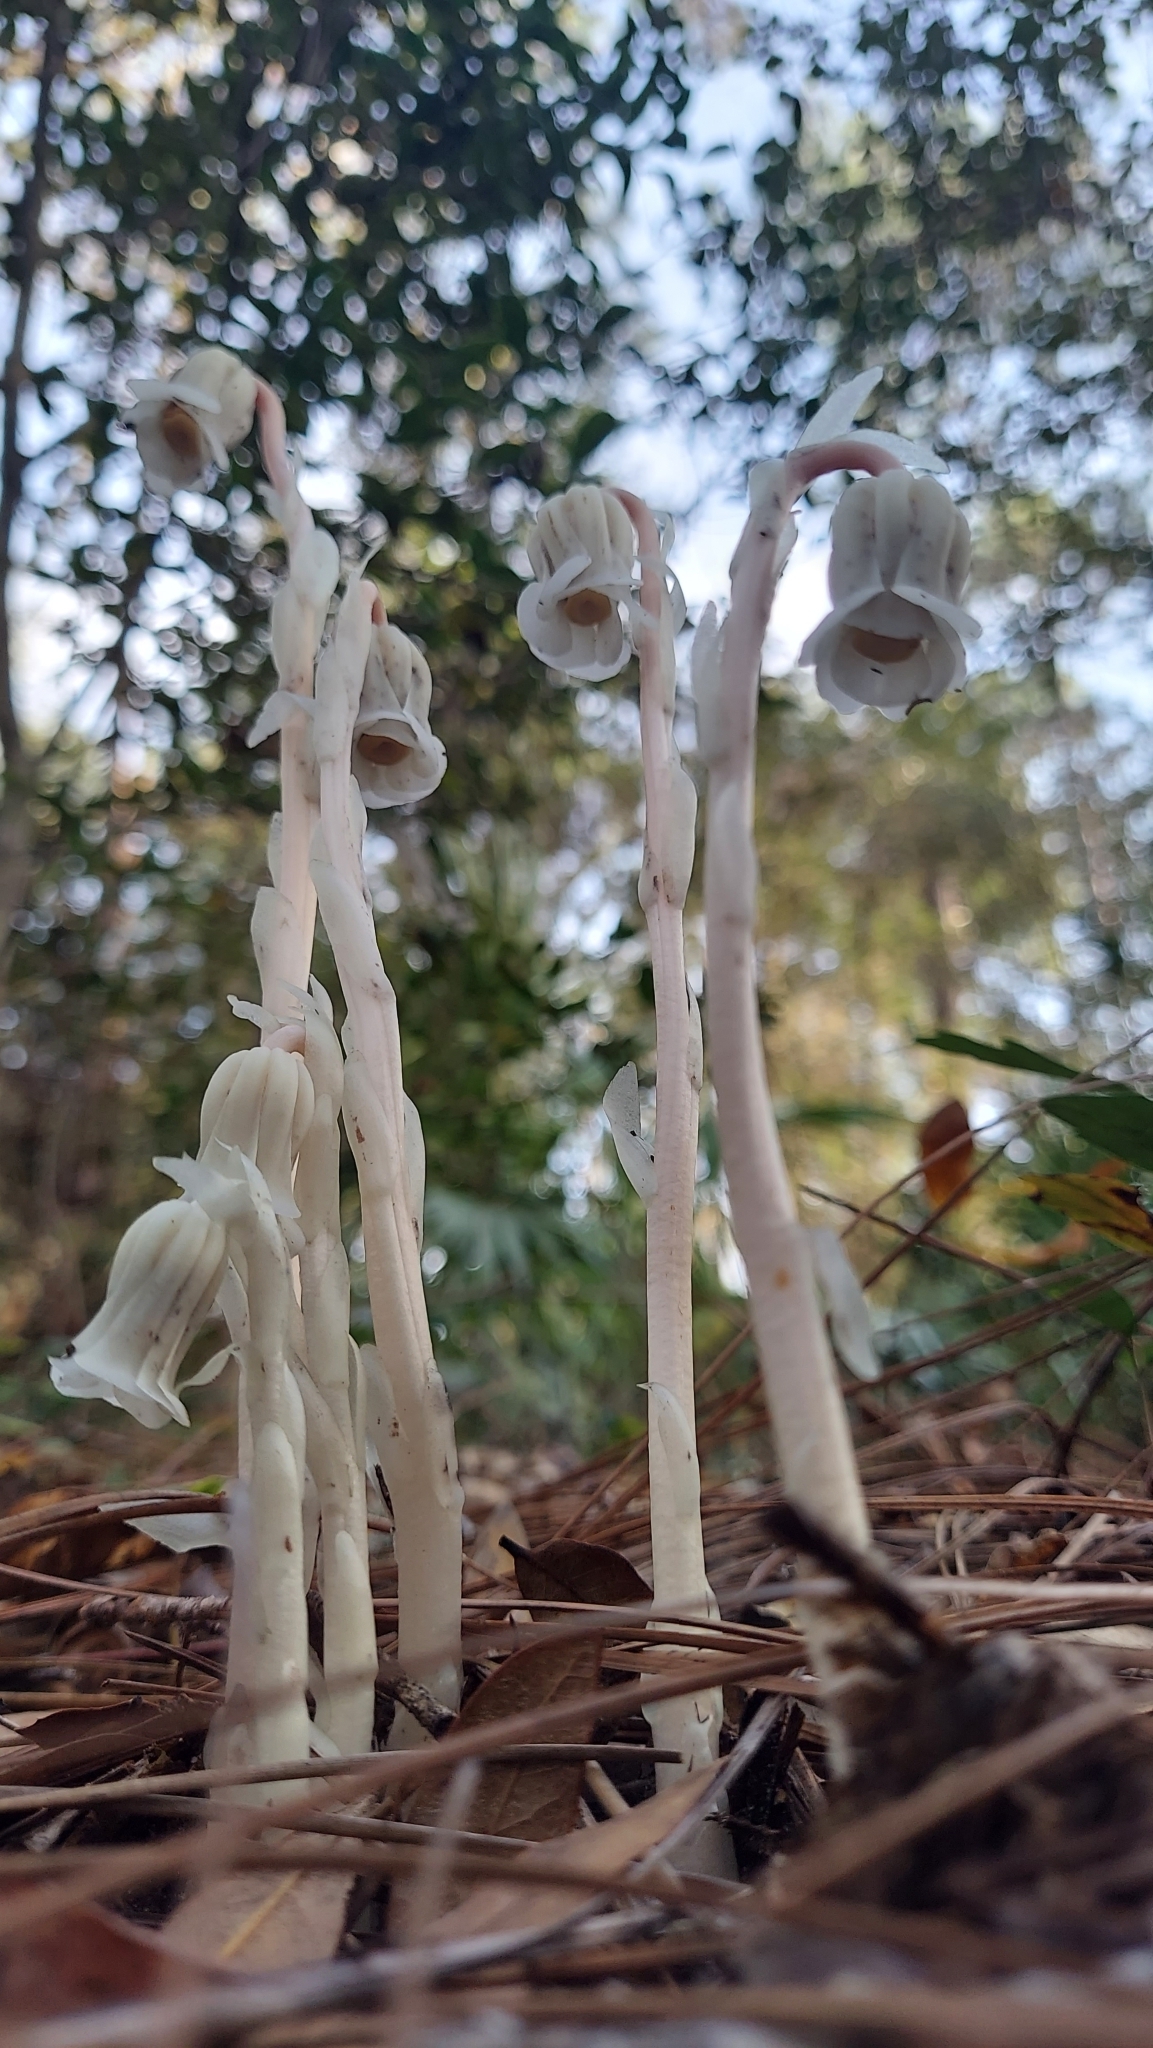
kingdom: Plantae
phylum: Tracheophyta
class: Magnoliopsida
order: Ericales
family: Ericaceae
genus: Monotropa
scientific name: Monotropa uniflora
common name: Convulsion root
